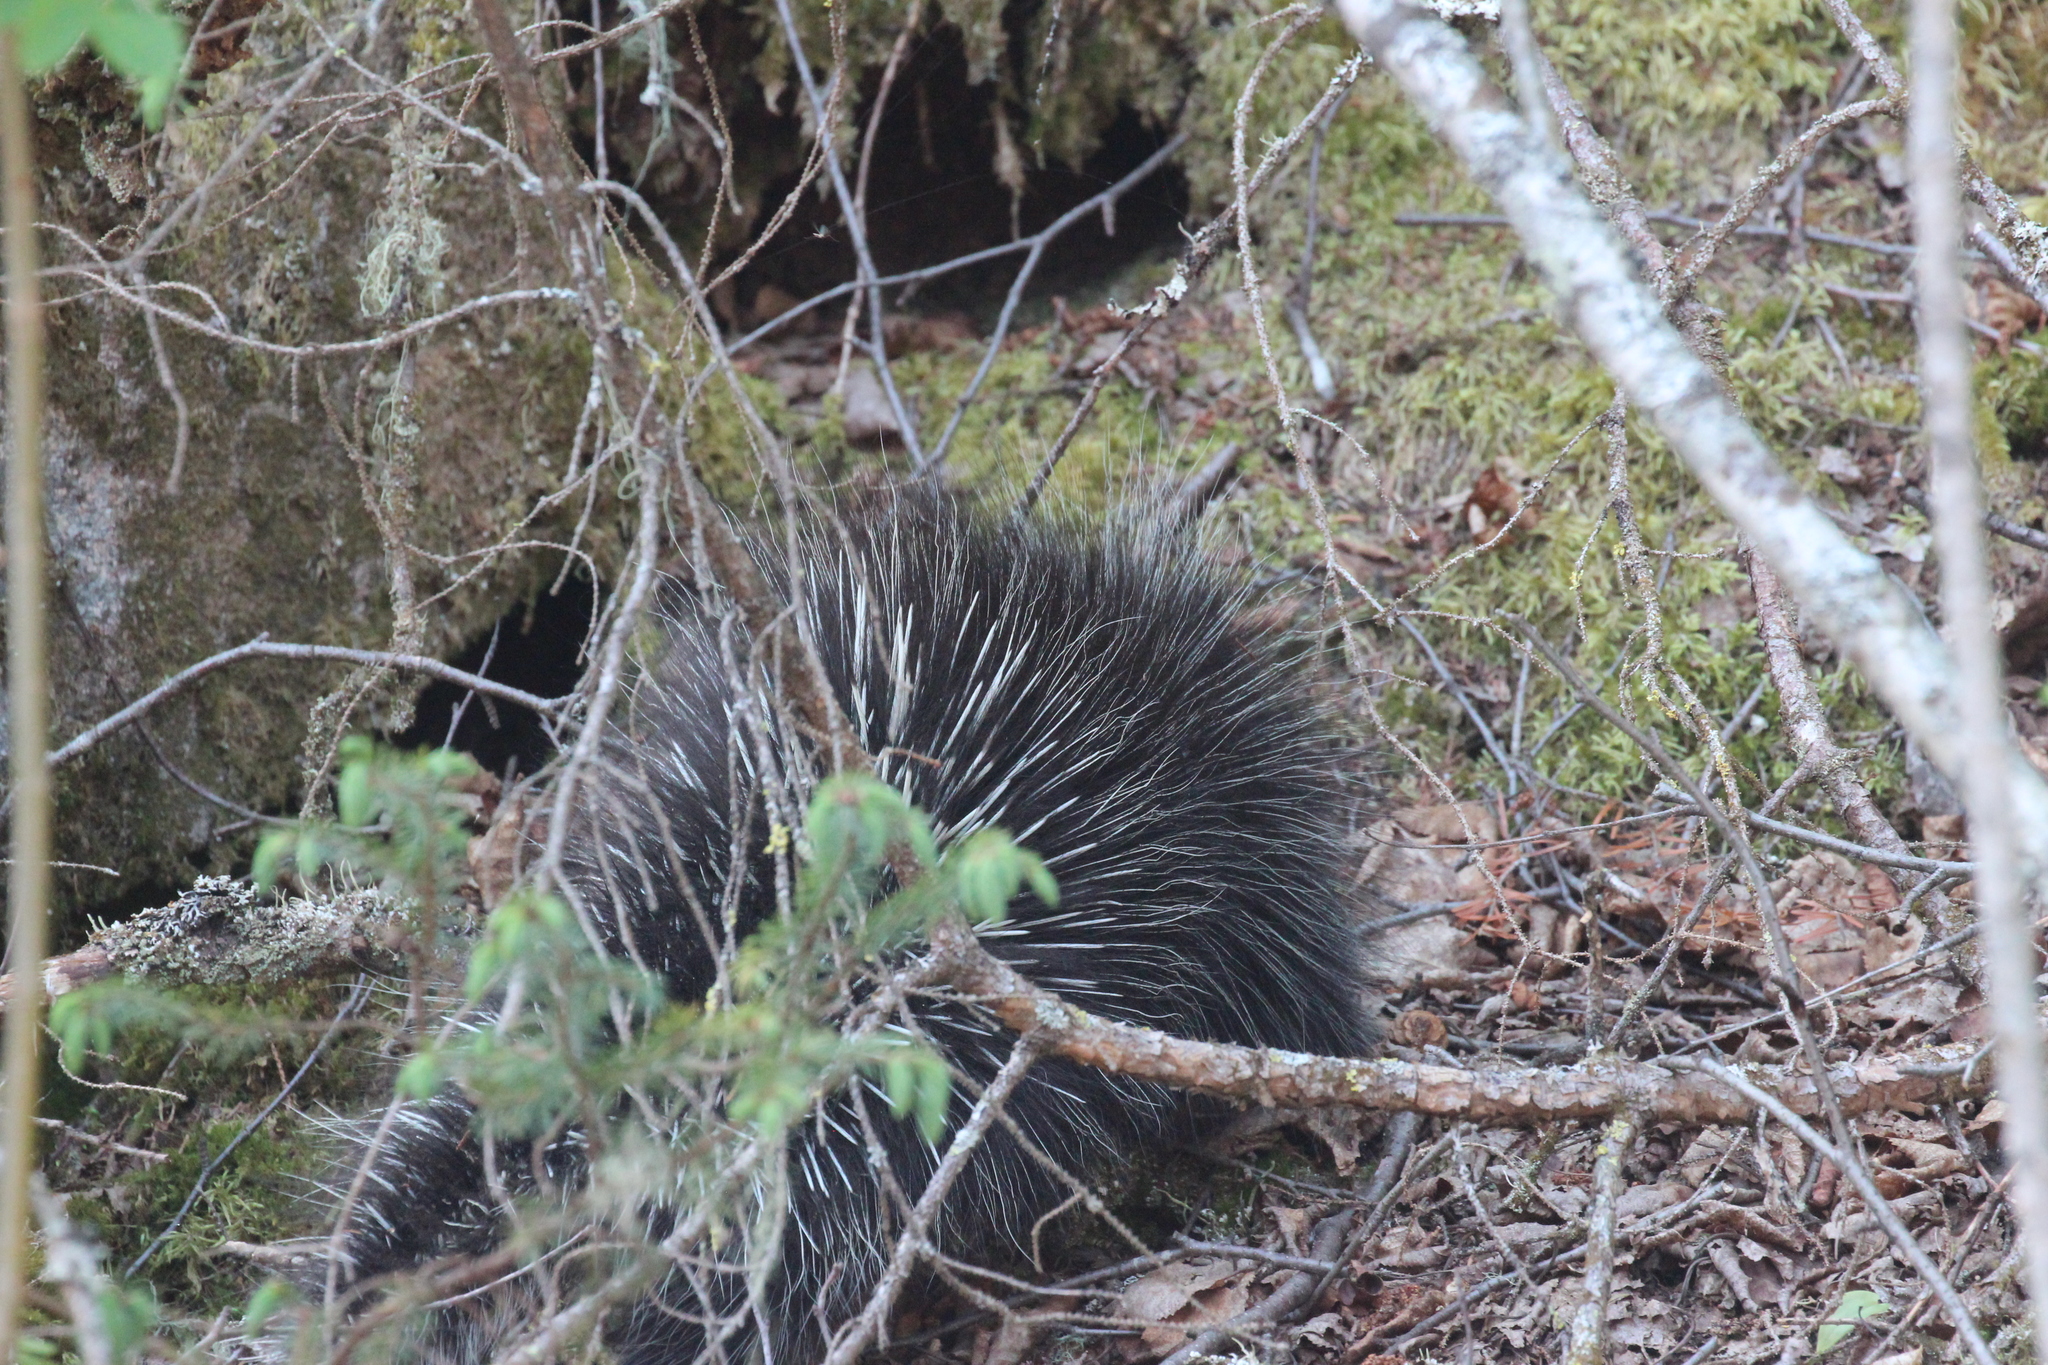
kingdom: Animalia
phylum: Chordata
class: Mammalia
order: Rodentia
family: Erethizontidae
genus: Erethizon
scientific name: Erethizon dorsatus
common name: North american porcupine
